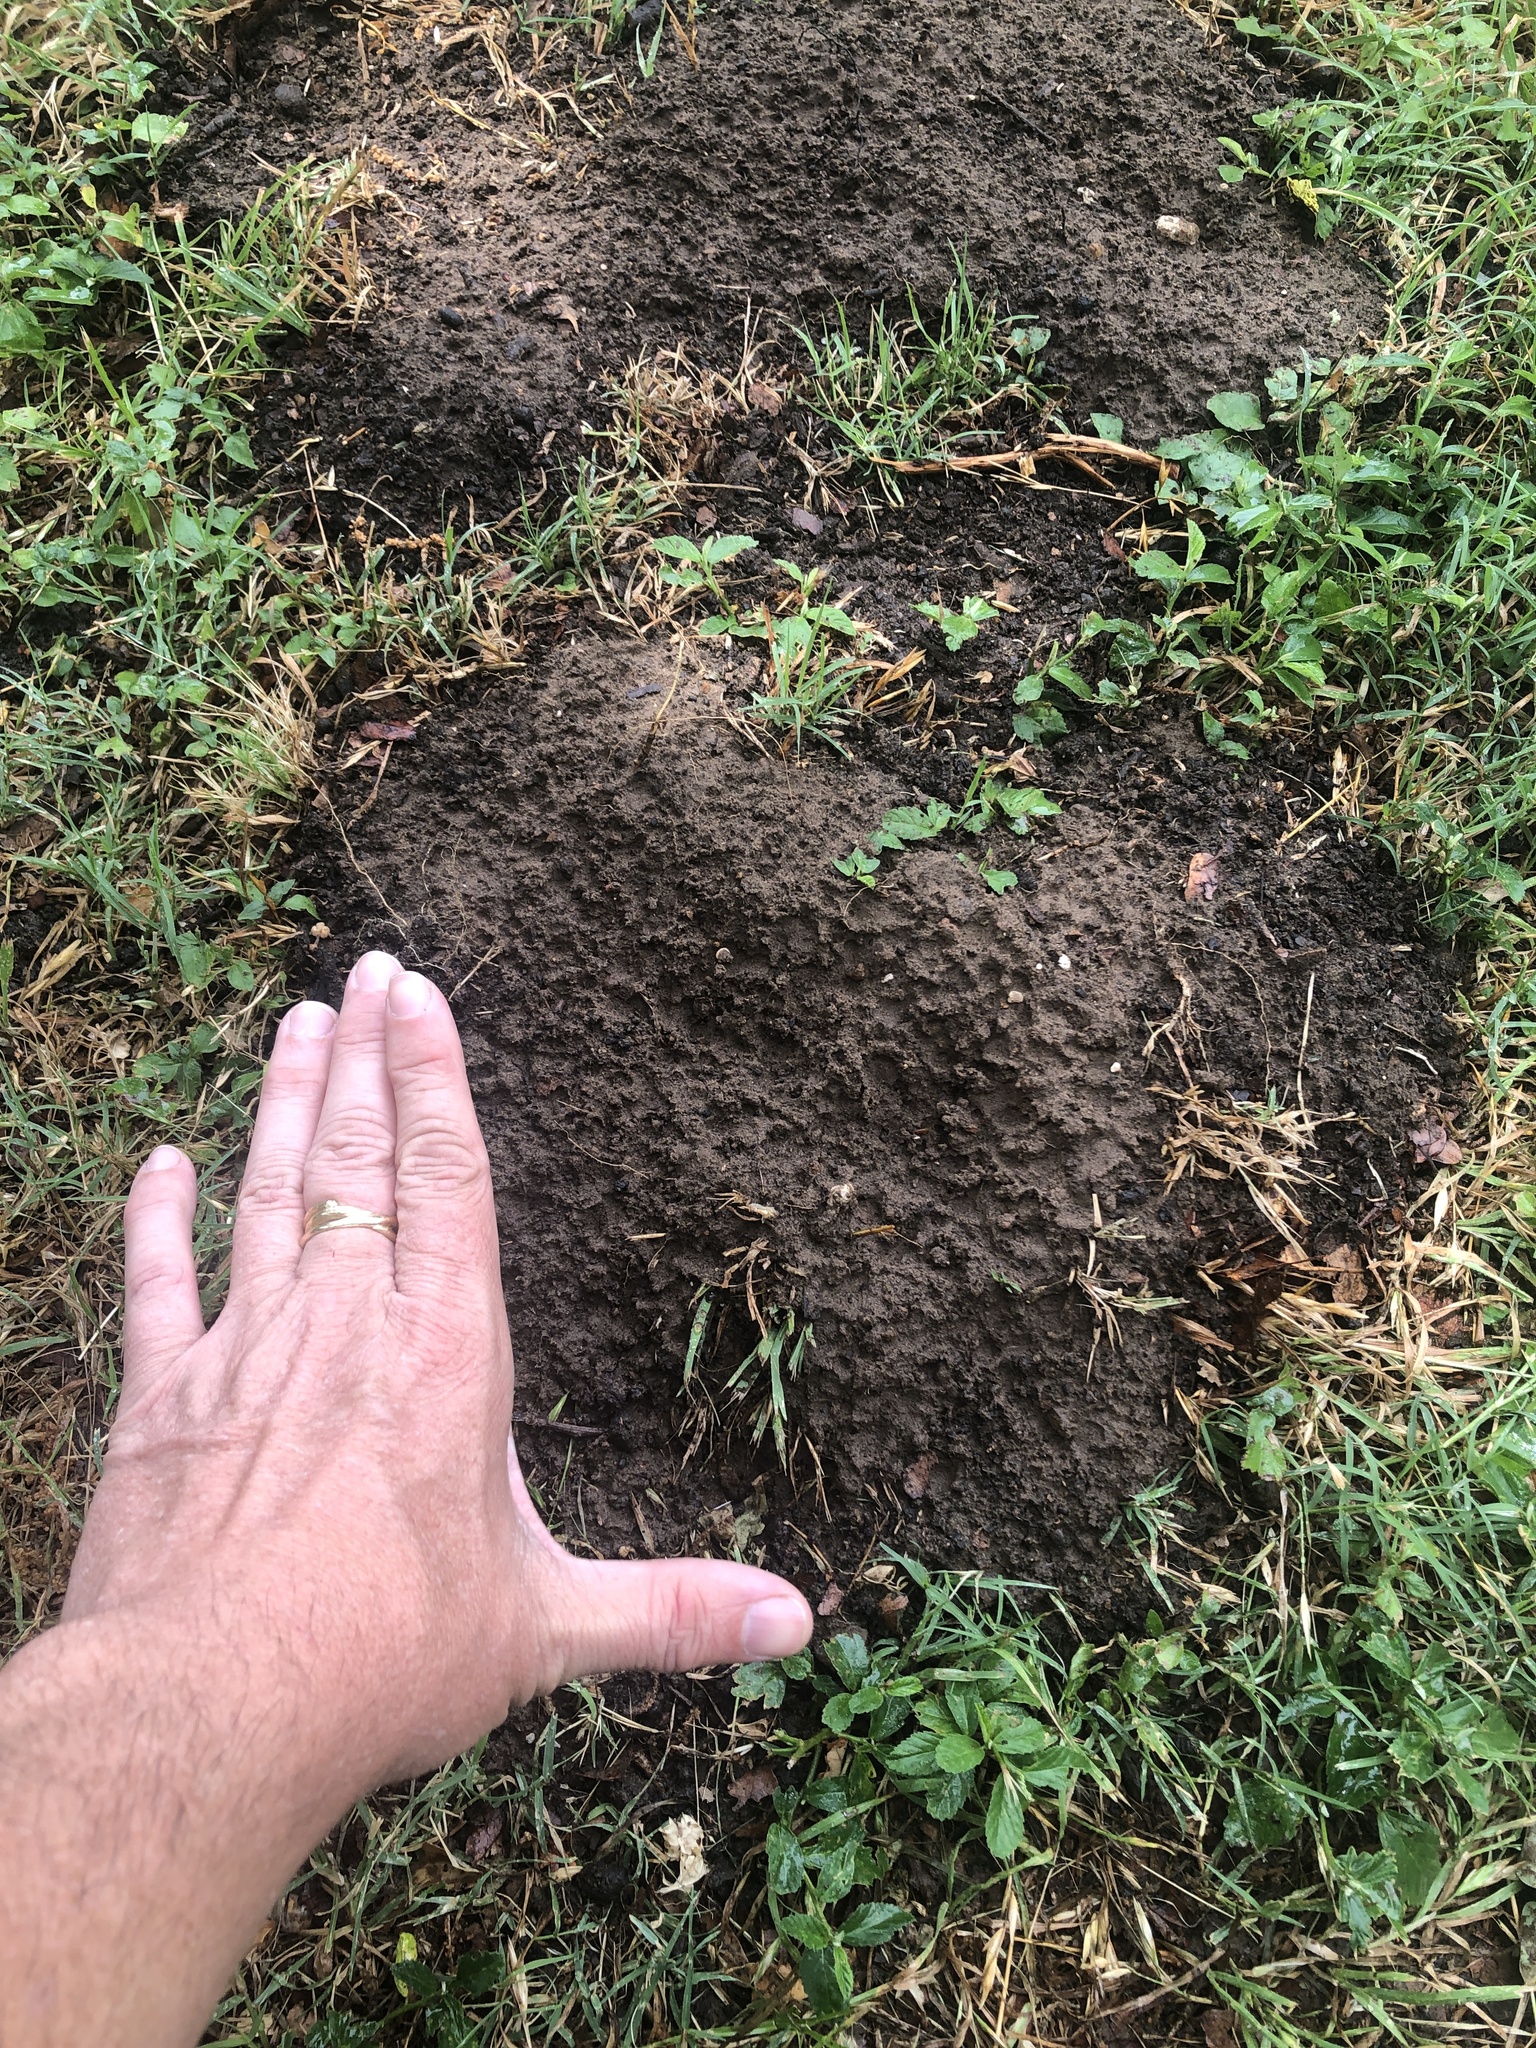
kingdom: Animalia
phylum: Chordata
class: Mammalia
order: Rodentia
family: Geomyidae
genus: Geomys
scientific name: Geomys bursarius
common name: Plains pocket gopher
